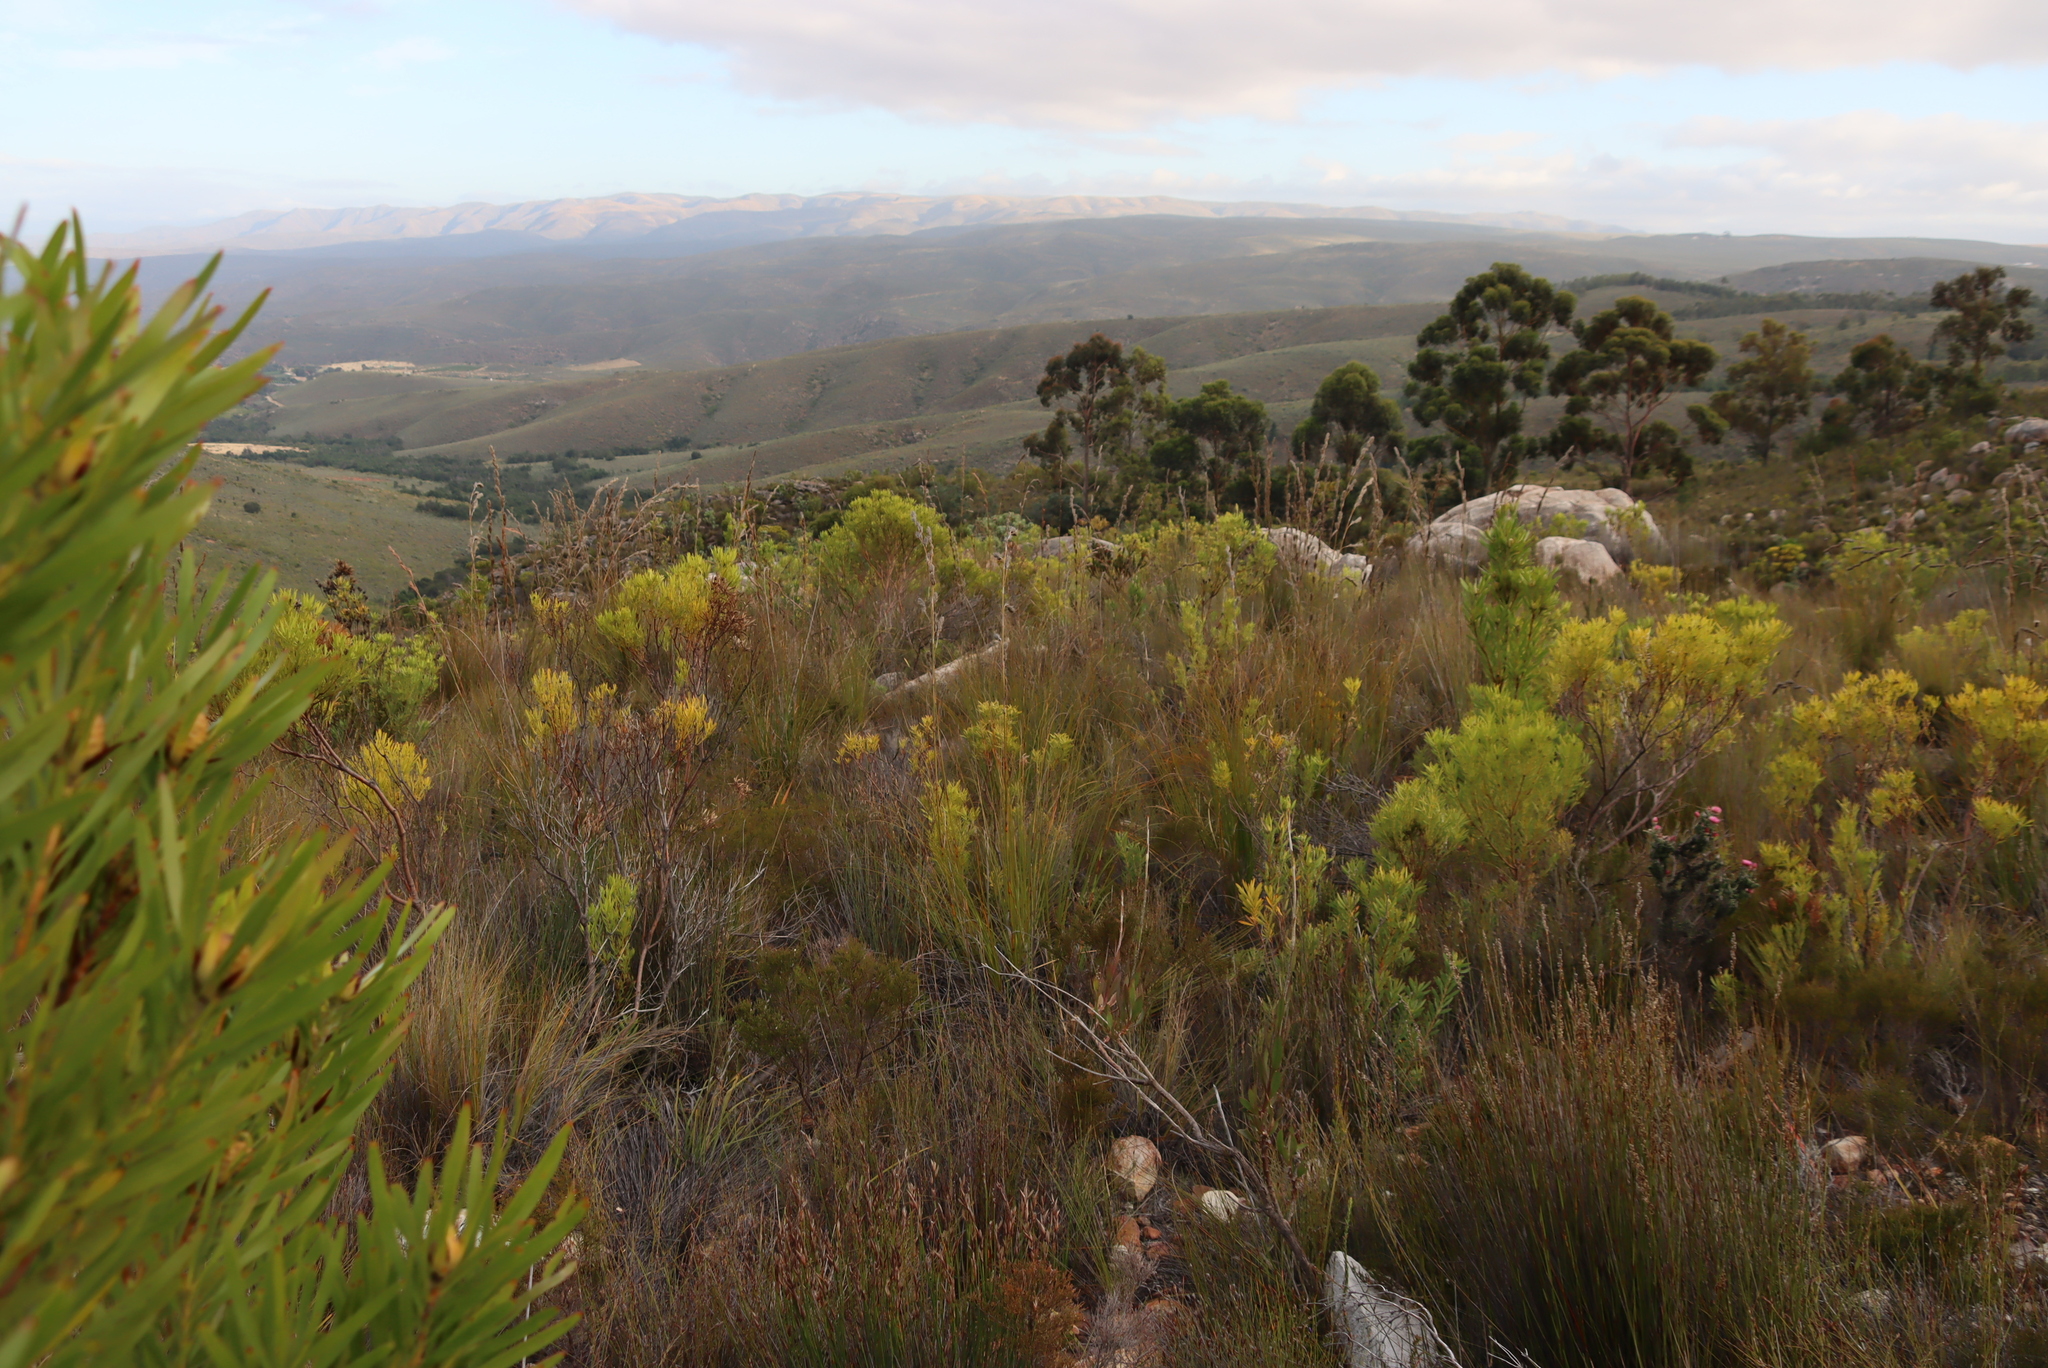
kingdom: Plantae
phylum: Tracheophyta
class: Magnoliopsida
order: Proteales
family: Proteaceae
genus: Leucadendron
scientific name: Leucadendron salignum
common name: Common sunshine conebush
